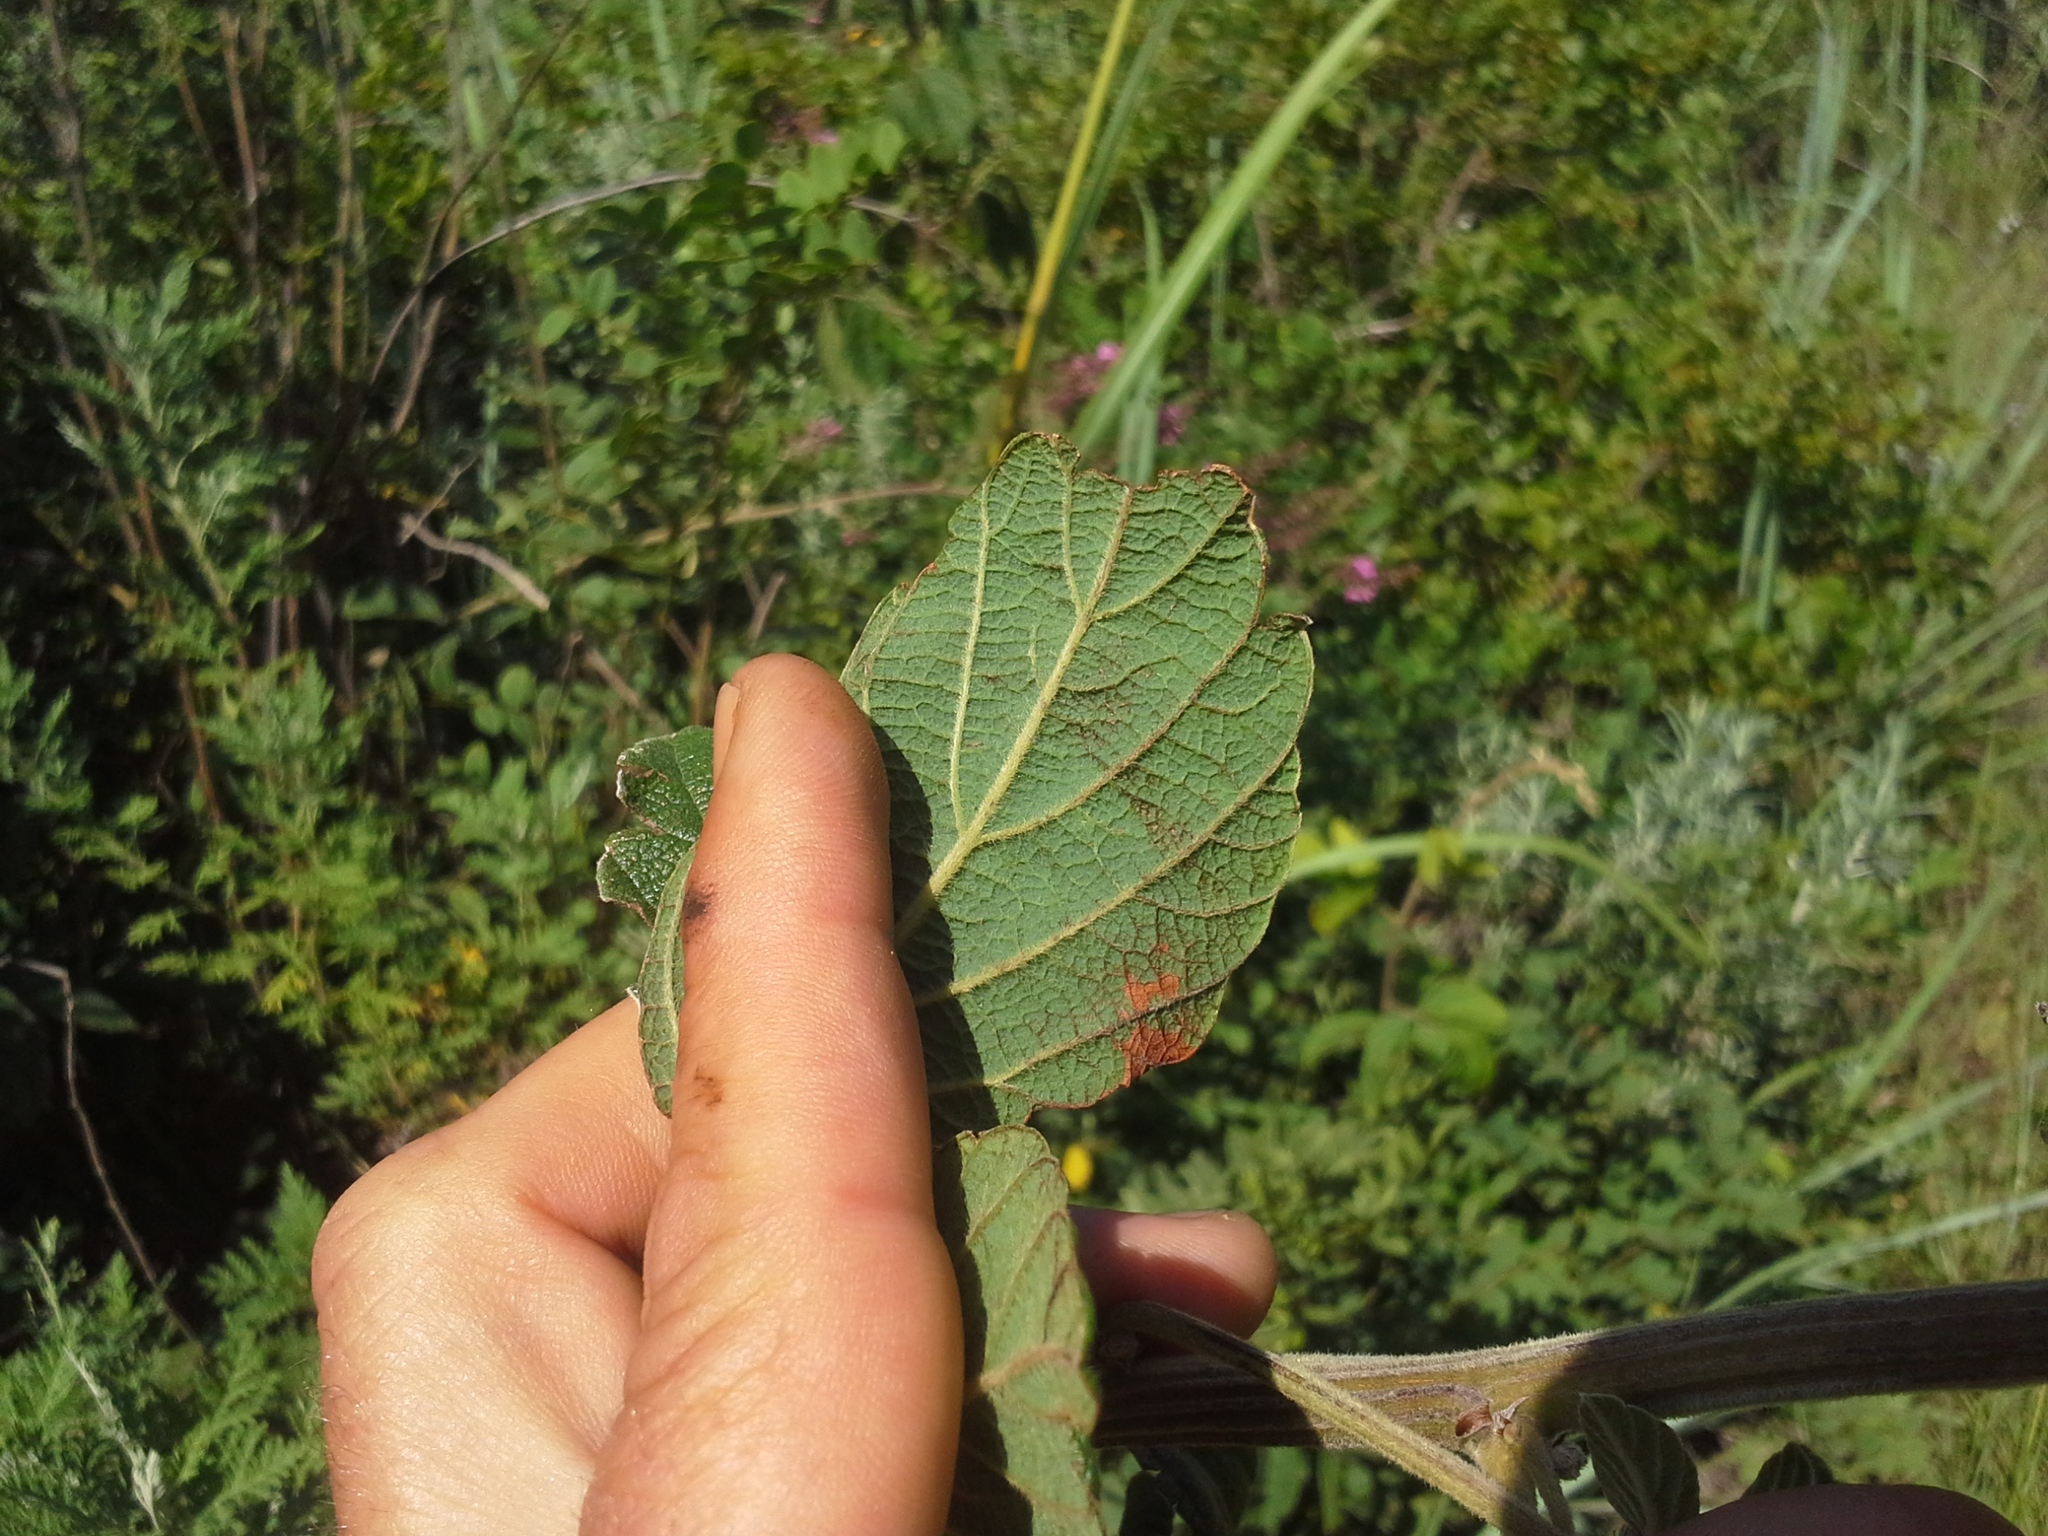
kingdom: Plantae
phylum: Tracheophyta
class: Magnoliopsida
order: Fabales
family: Fabaceae
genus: Pseudarthria
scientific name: Pseudarthria hookeri
